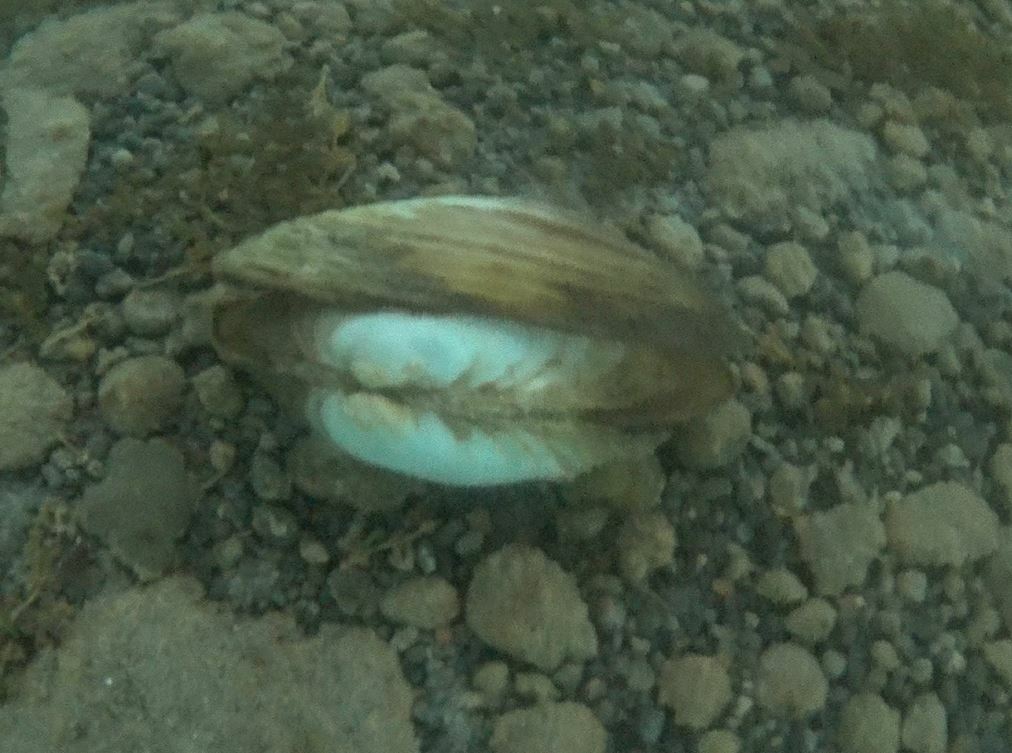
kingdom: Animalia
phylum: Mollusca
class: Bivalvia
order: Unionida
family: Unionidae
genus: Pyganodon
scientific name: Pyganodon grandis
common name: Giant floater
